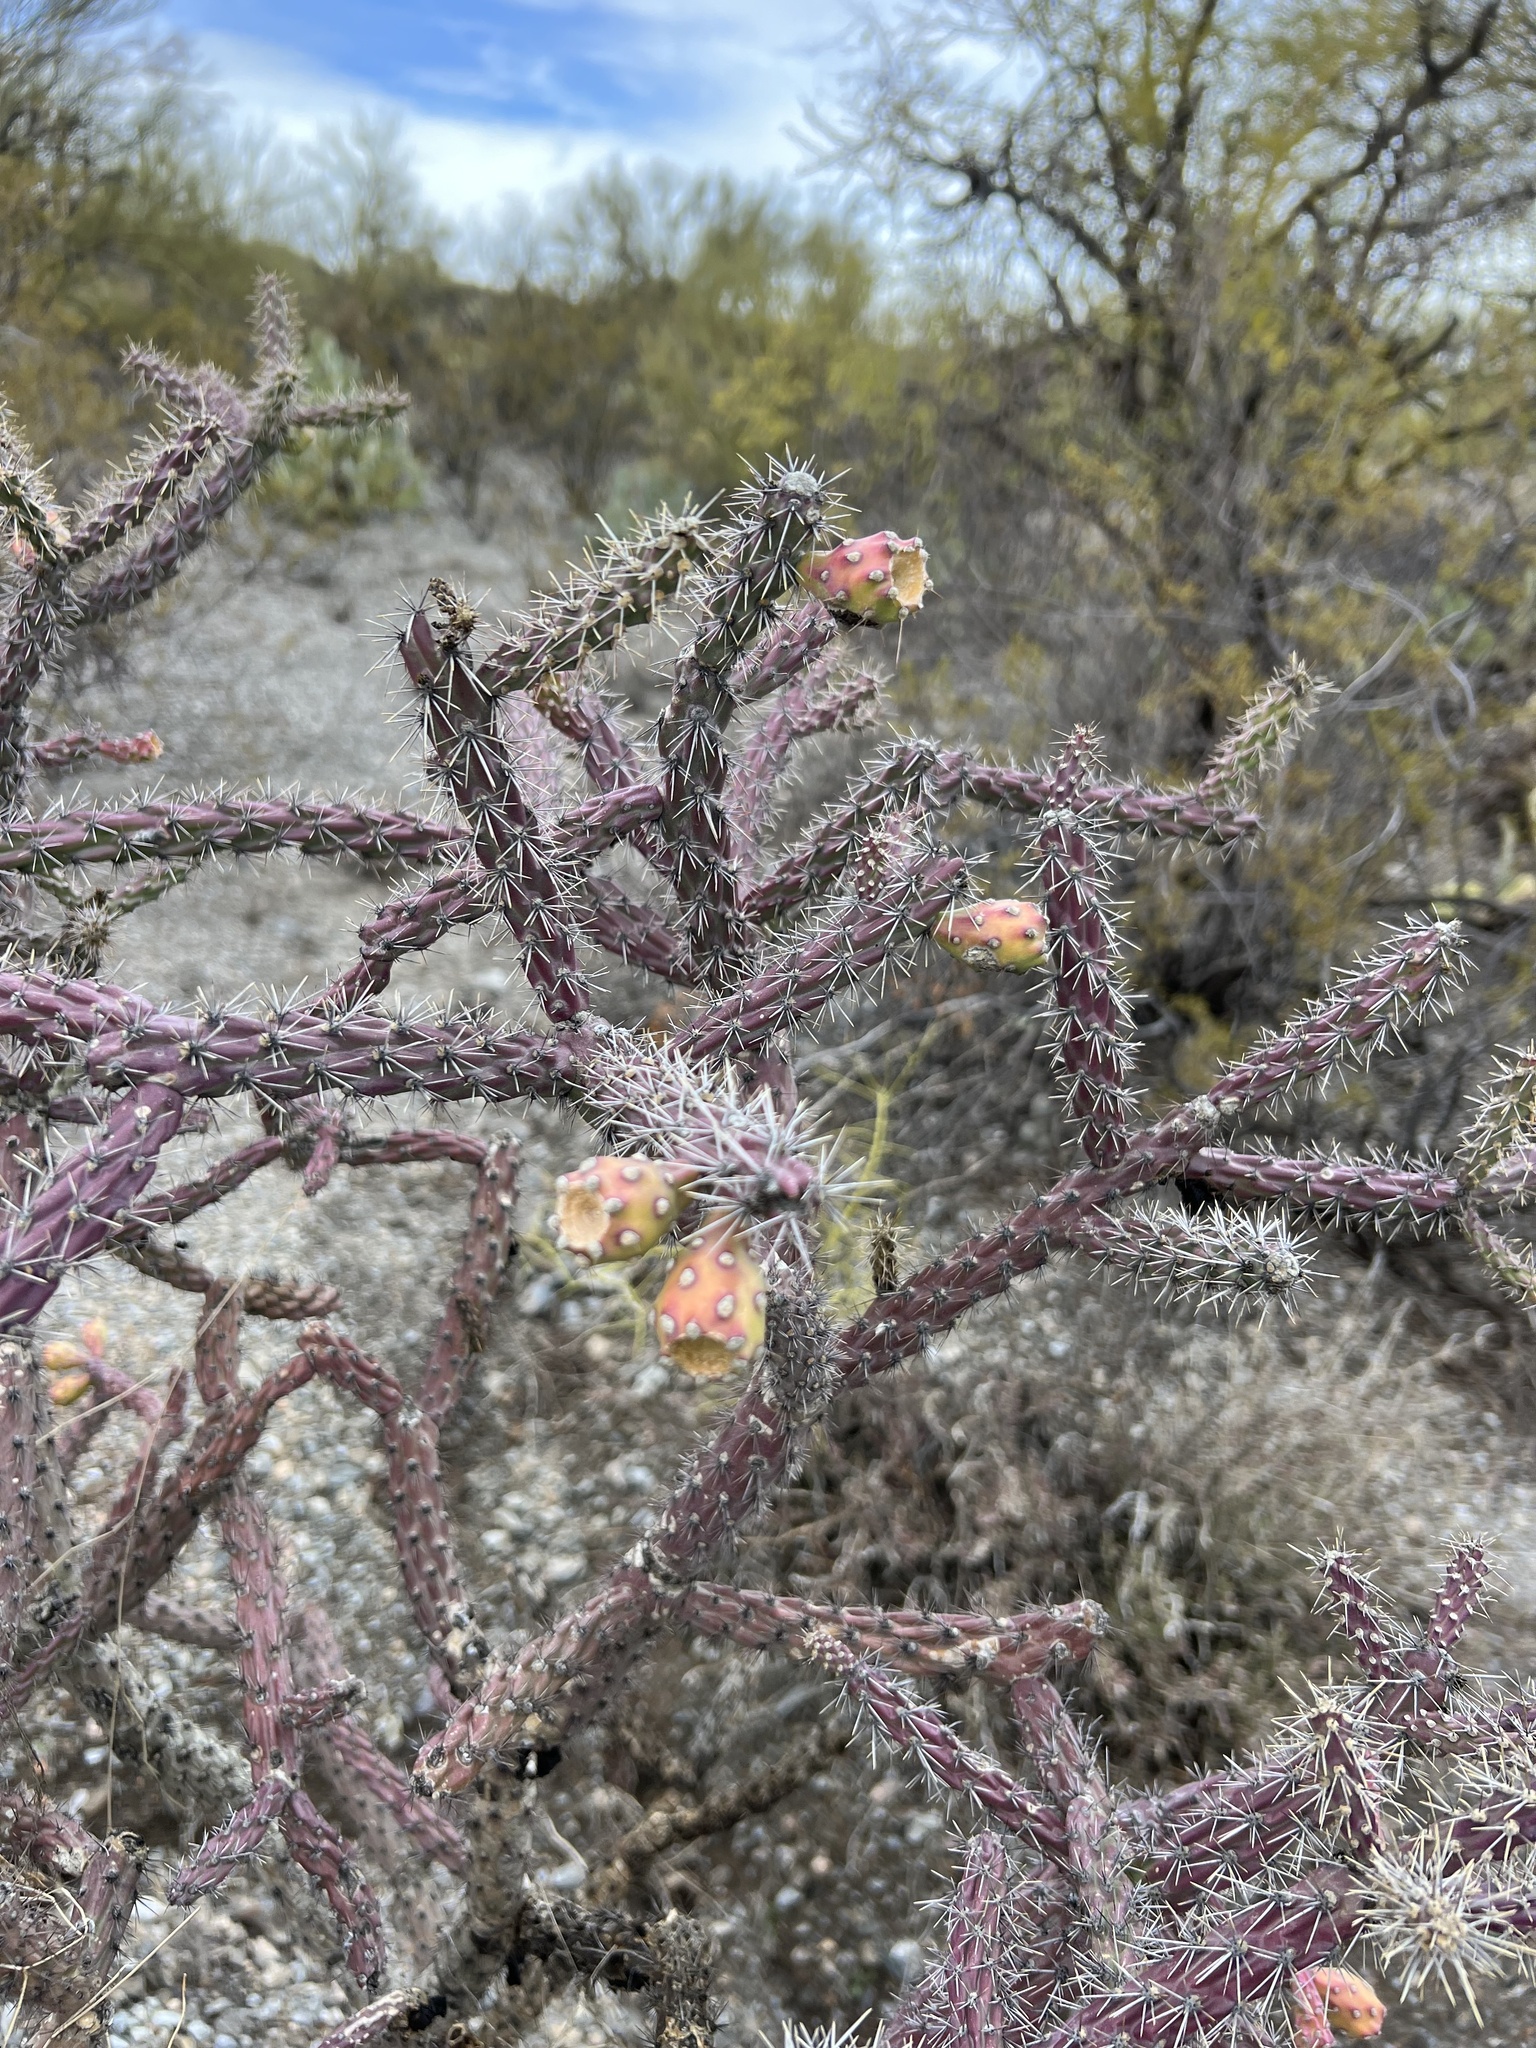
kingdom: Plantae
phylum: Tracheophyta
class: Magnoliopsida
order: Caryophyllales
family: Cactaceae
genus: Cylindropuntia
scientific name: Cylindropuntia thurberi
